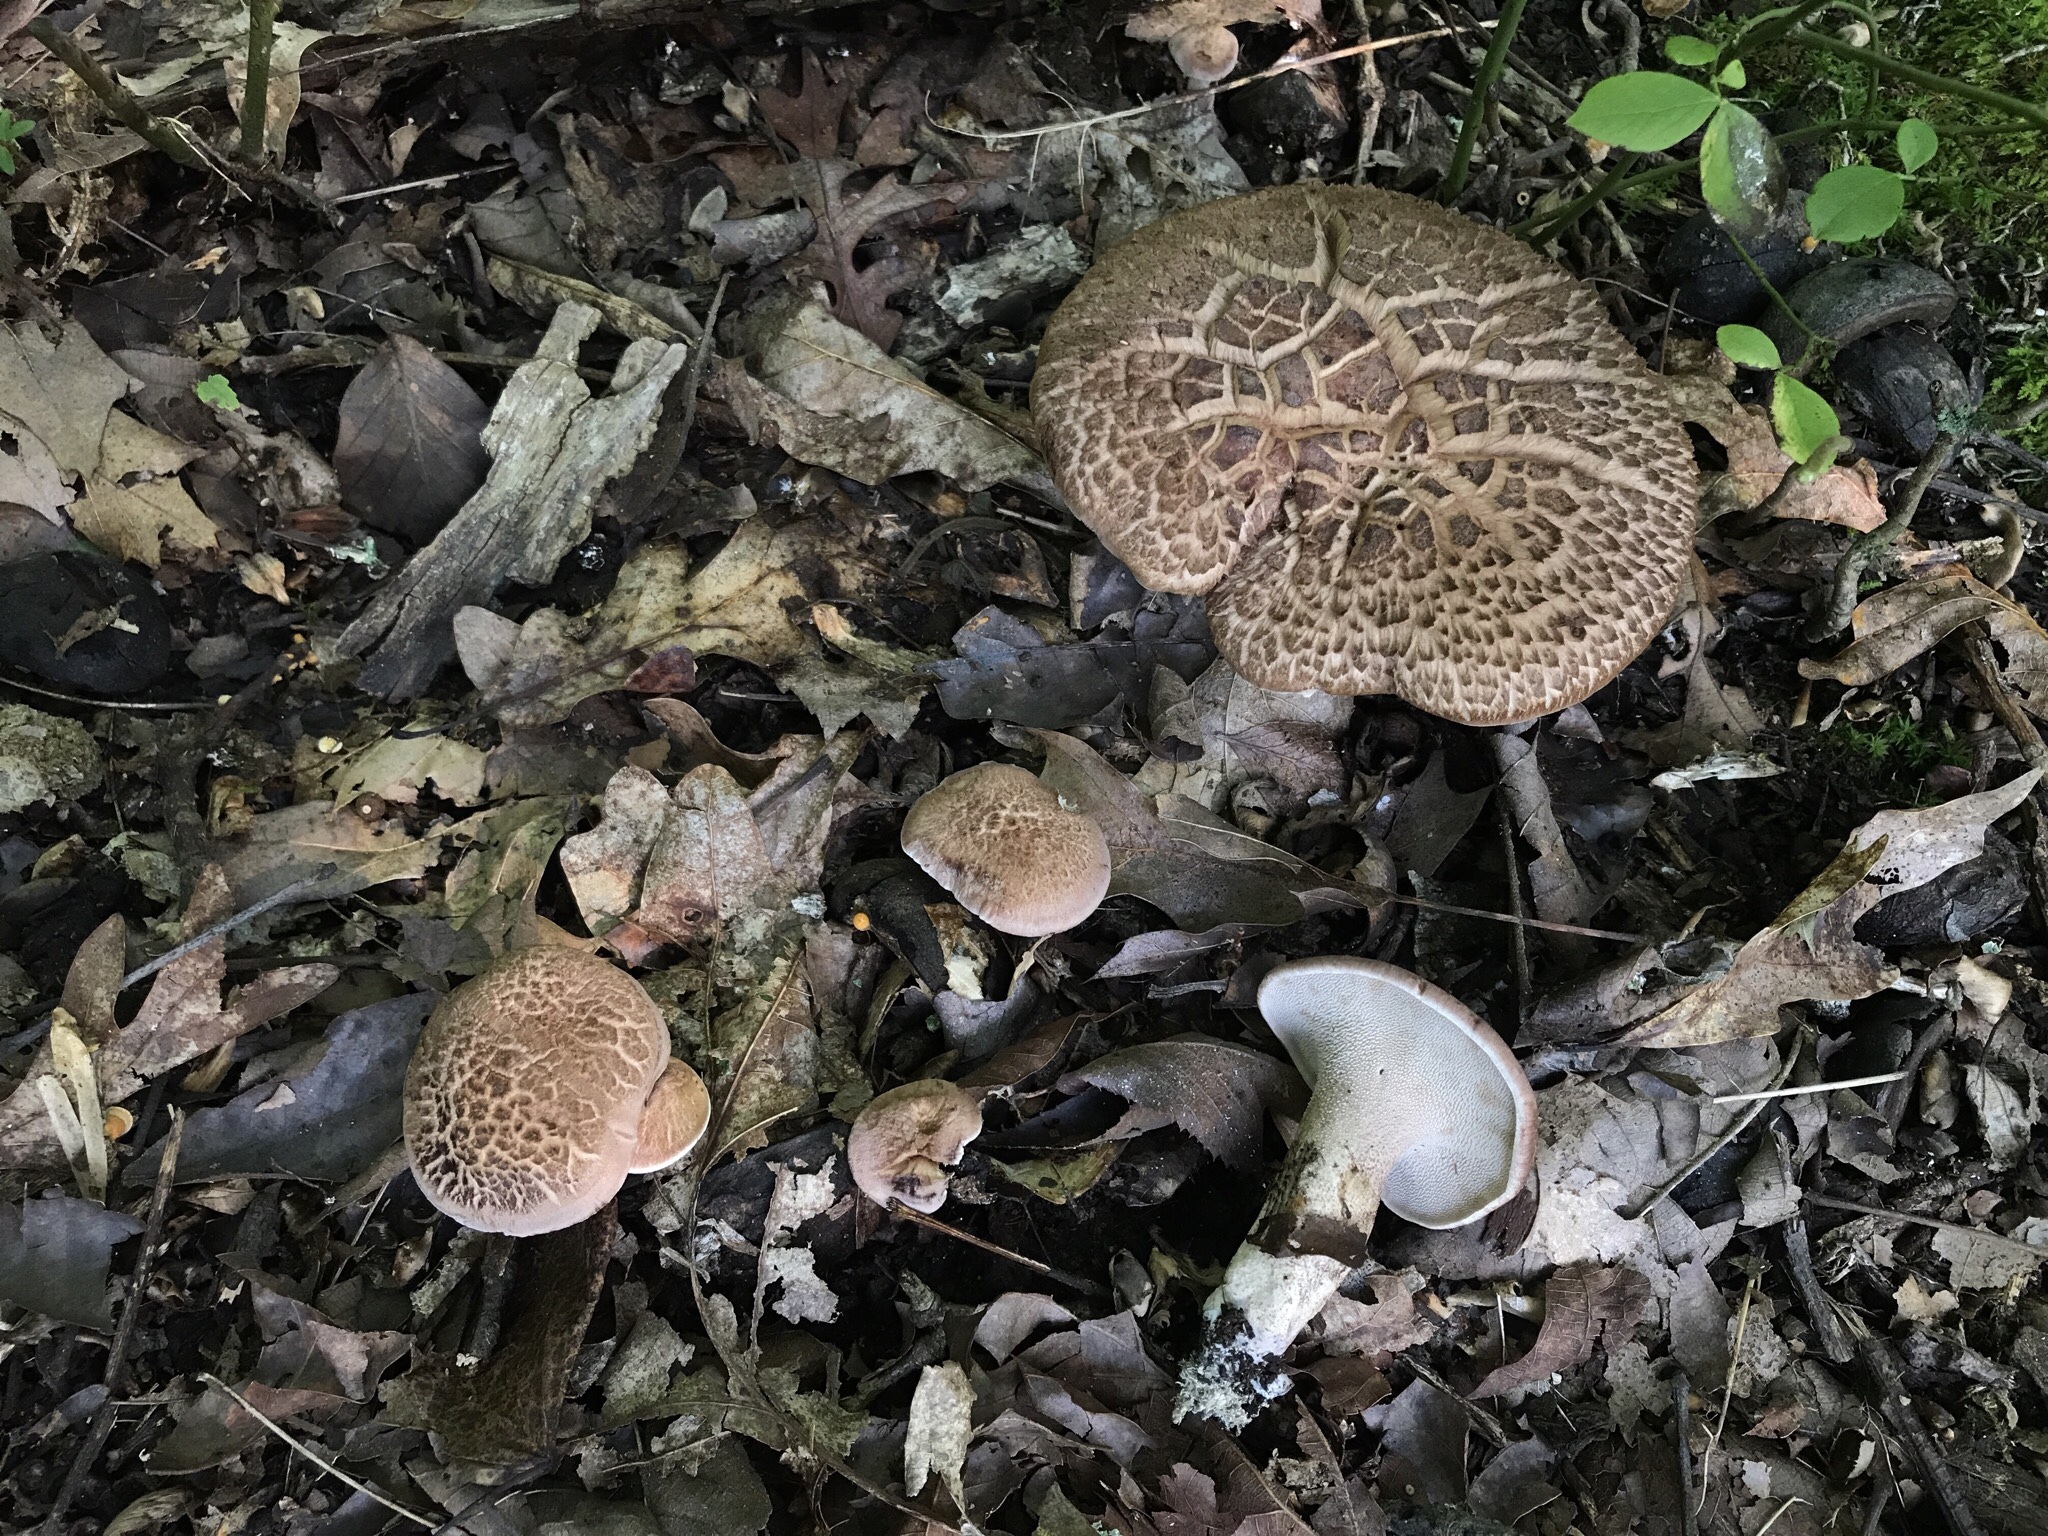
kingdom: Fungi
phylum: Basidiomycota
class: Agaricomycetes
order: Thelephorales
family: Bankeraceae
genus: Hydnellum
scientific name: Hydnellum scabrosum
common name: Bitter tooth
